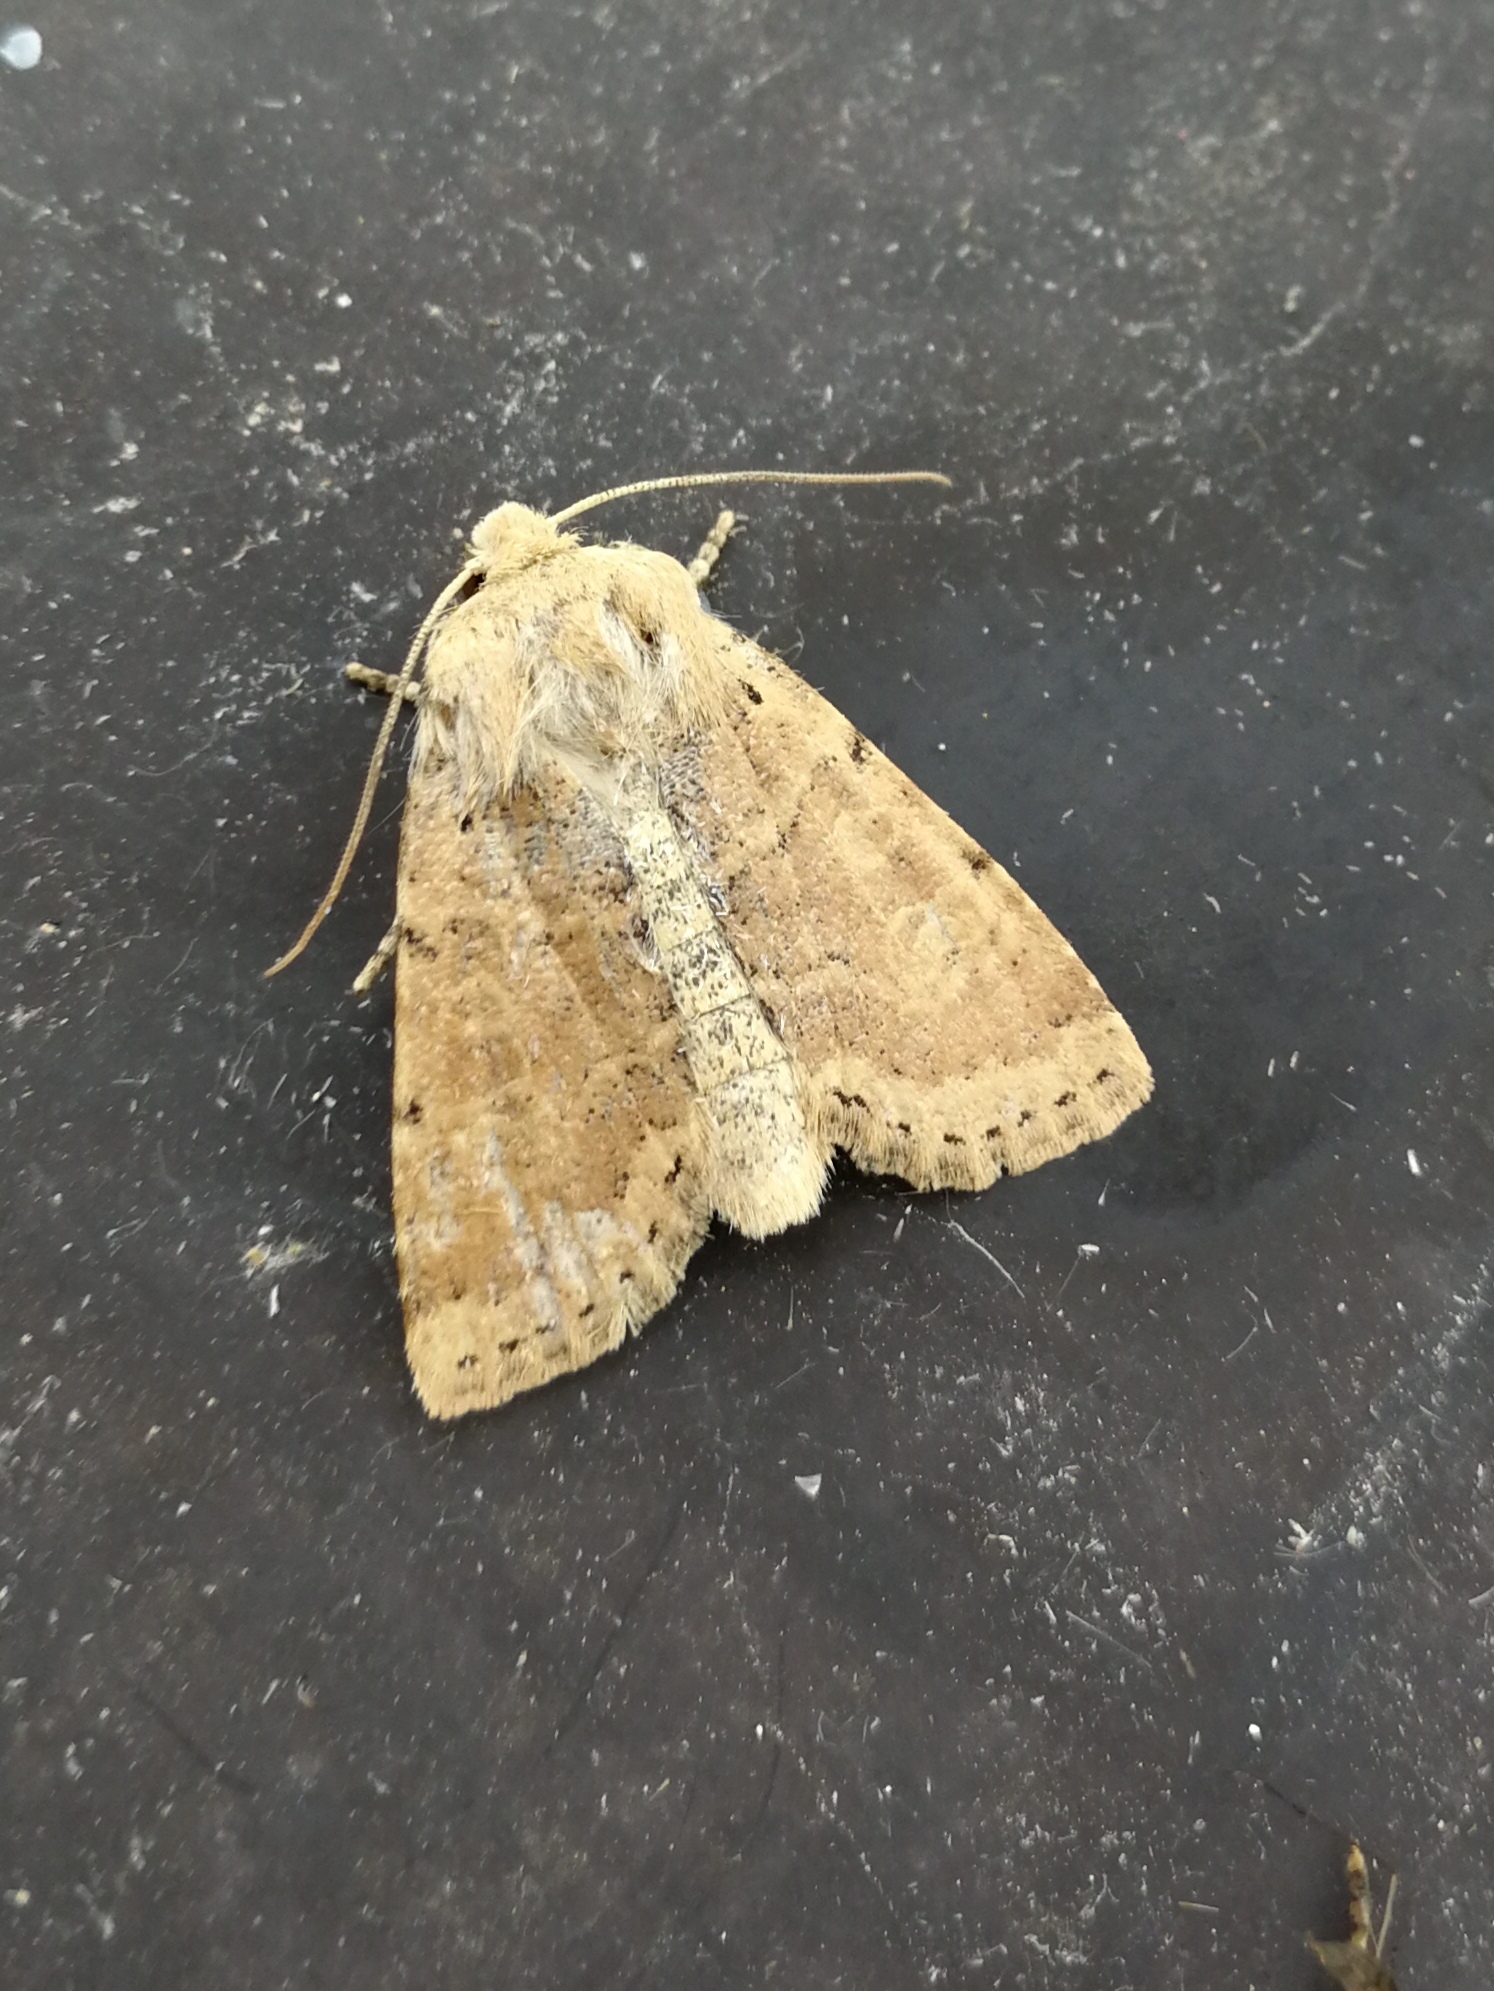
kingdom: Animalia
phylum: Arthropoda
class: Insecta
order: Lepidoptera
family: Noctuidae
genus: Conistra
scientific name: Conistra daubei
